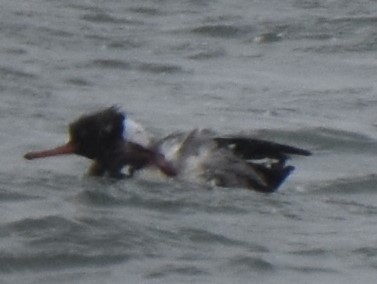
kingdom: Animalia
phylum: Chordata
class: Aves
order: Anseriformes
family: Anatidae
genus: Mergus
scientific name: Mergus serrator
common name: Red-breasted merganser
